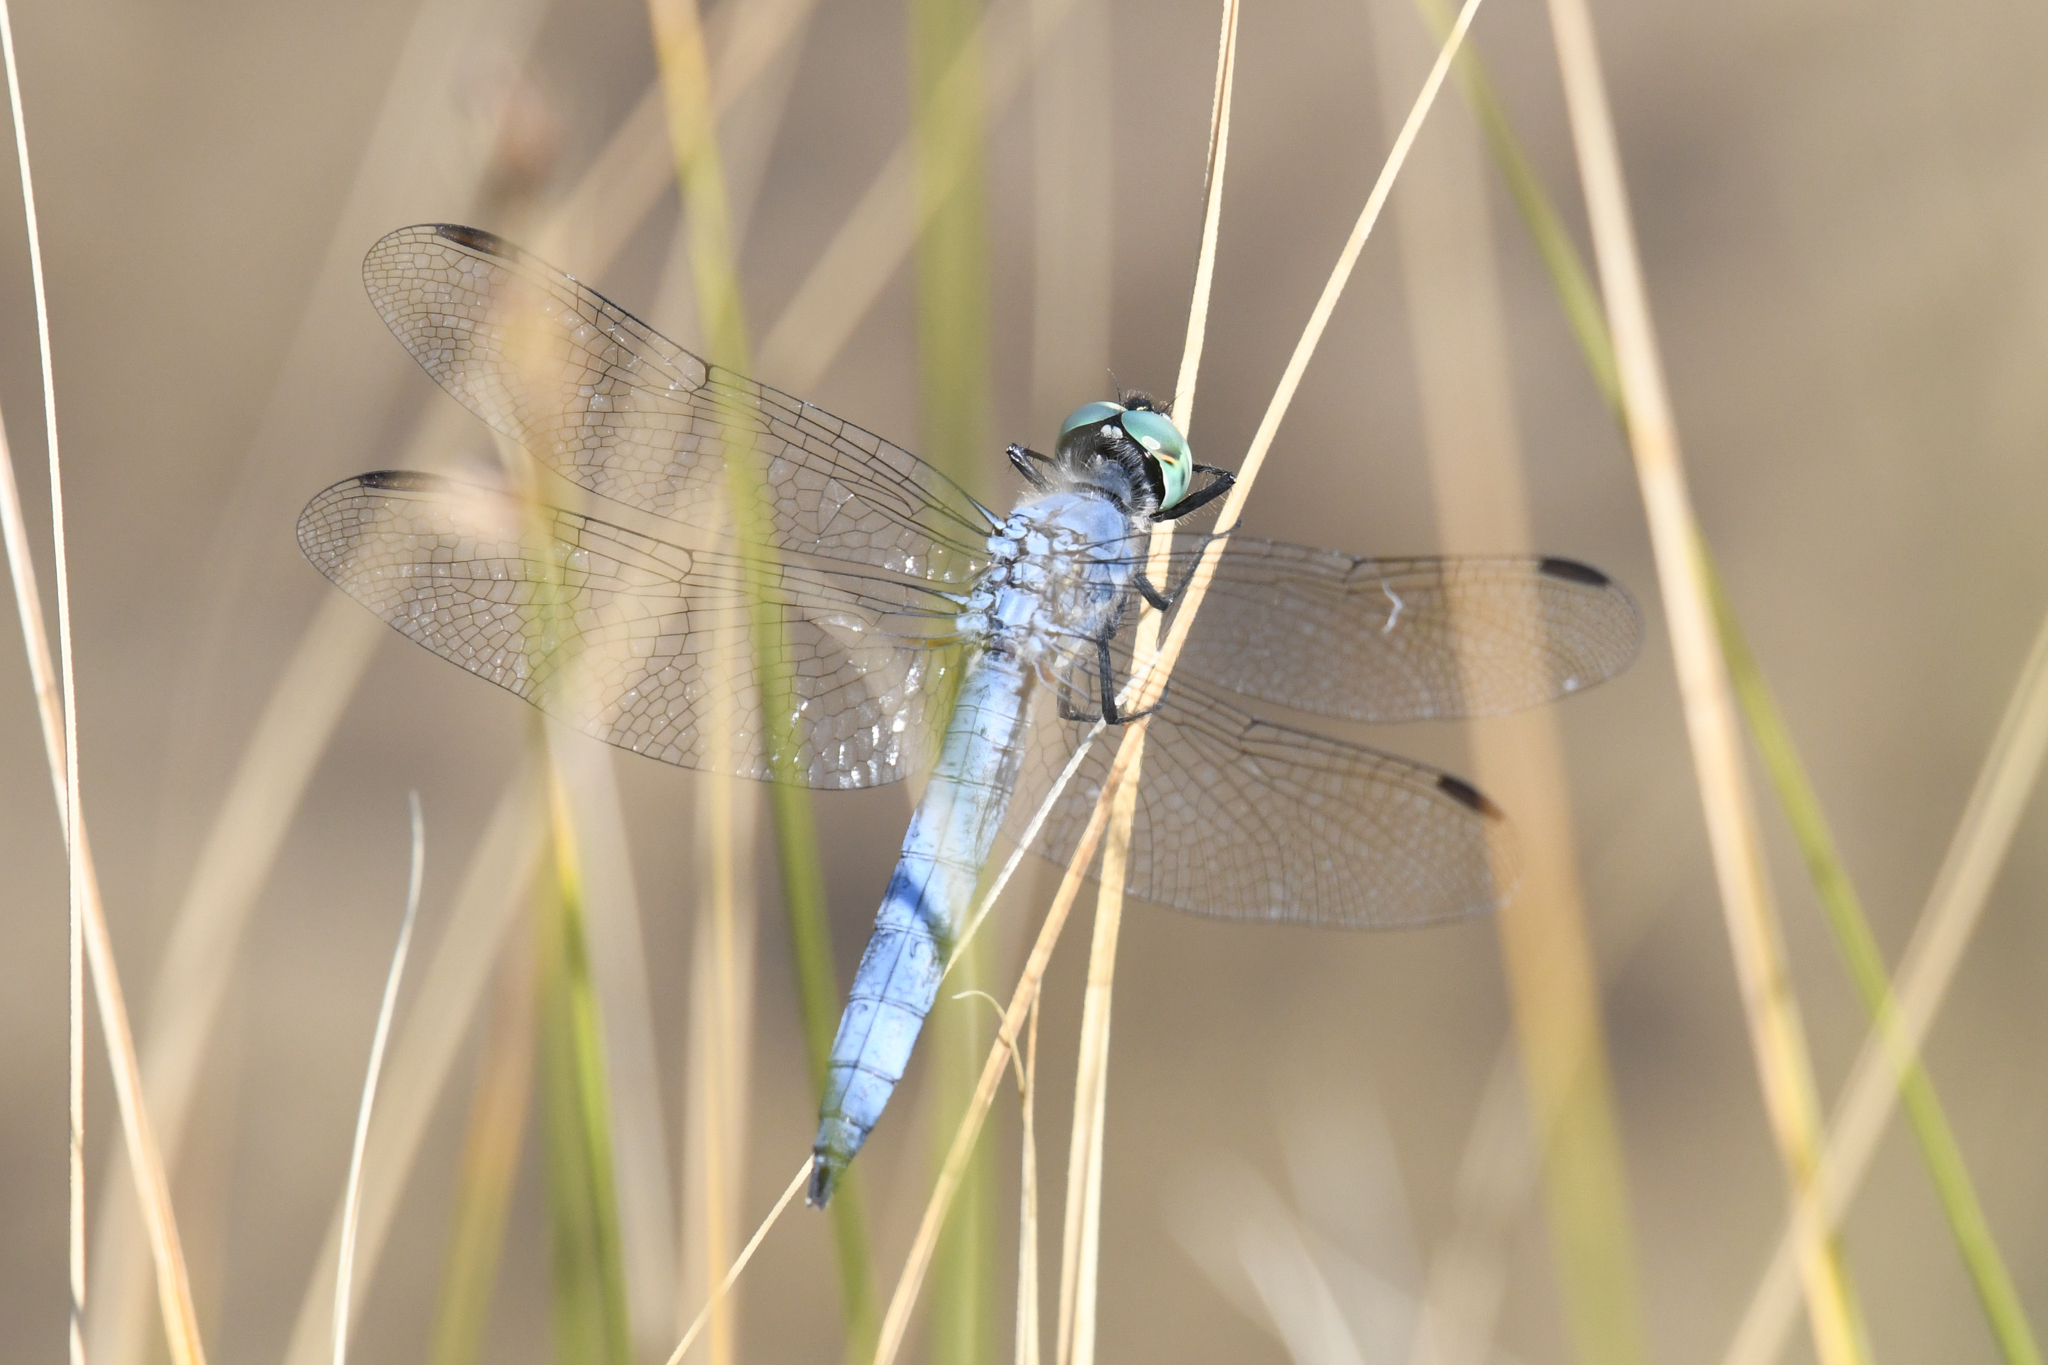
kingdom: Animalia
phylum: Arthropoda
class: Insecta
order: Odonata
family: Libellulidae
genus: Pachydiplax
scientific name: Pachydiplax longipennis
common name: Blue dasher
